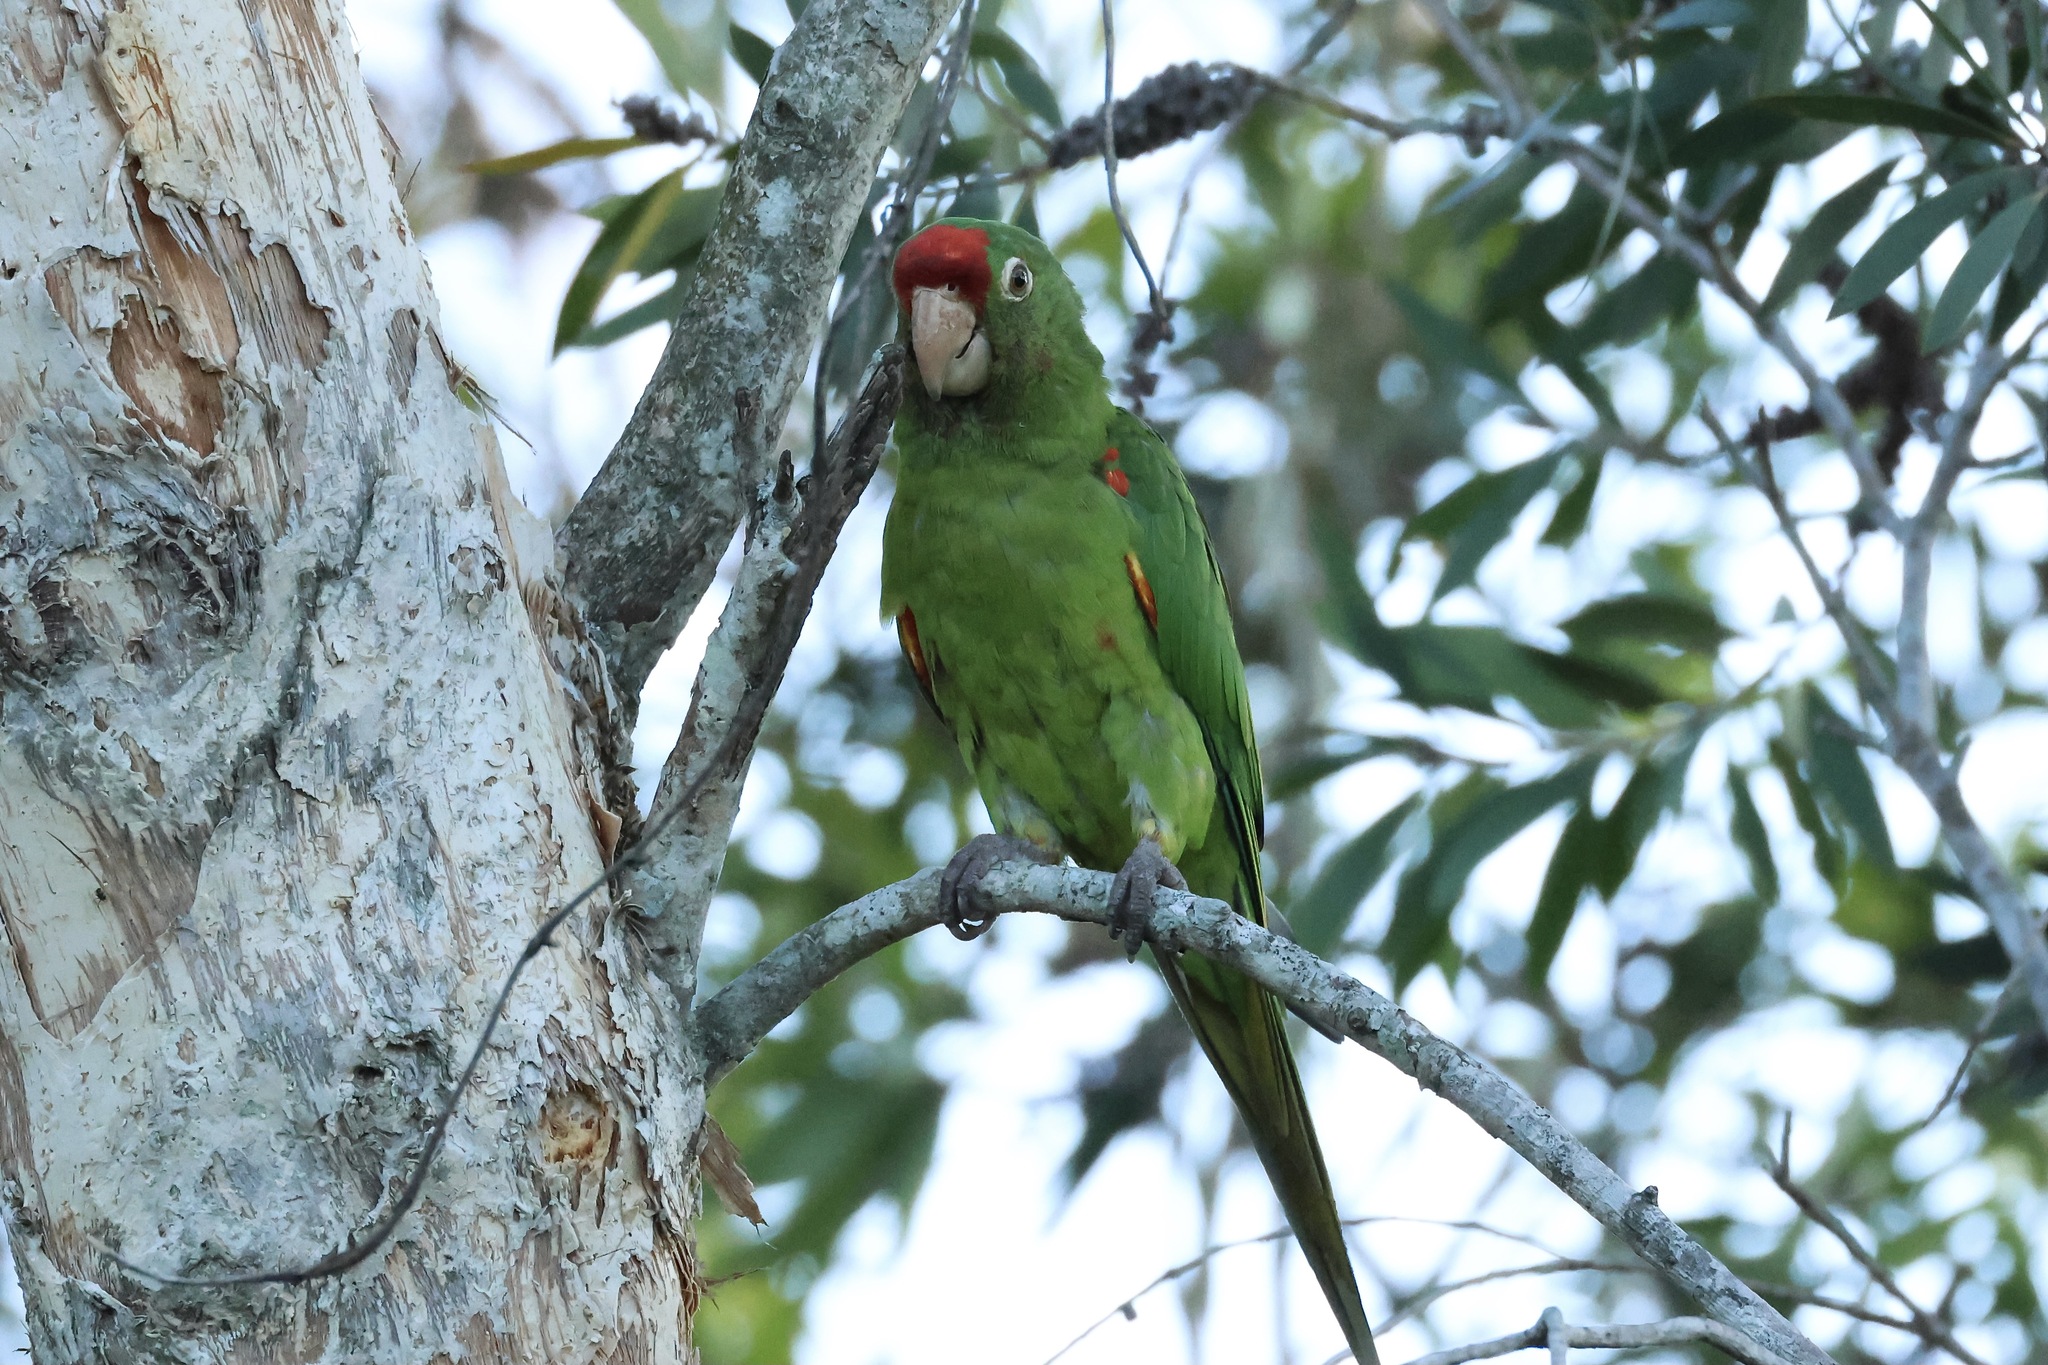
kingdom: Animalia
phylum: Chordata
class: Aves
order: Psittaciformes
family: Psittacidae
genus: Aratinga
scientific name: Aratinga finschi
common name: Crimson-fronted parakeet
